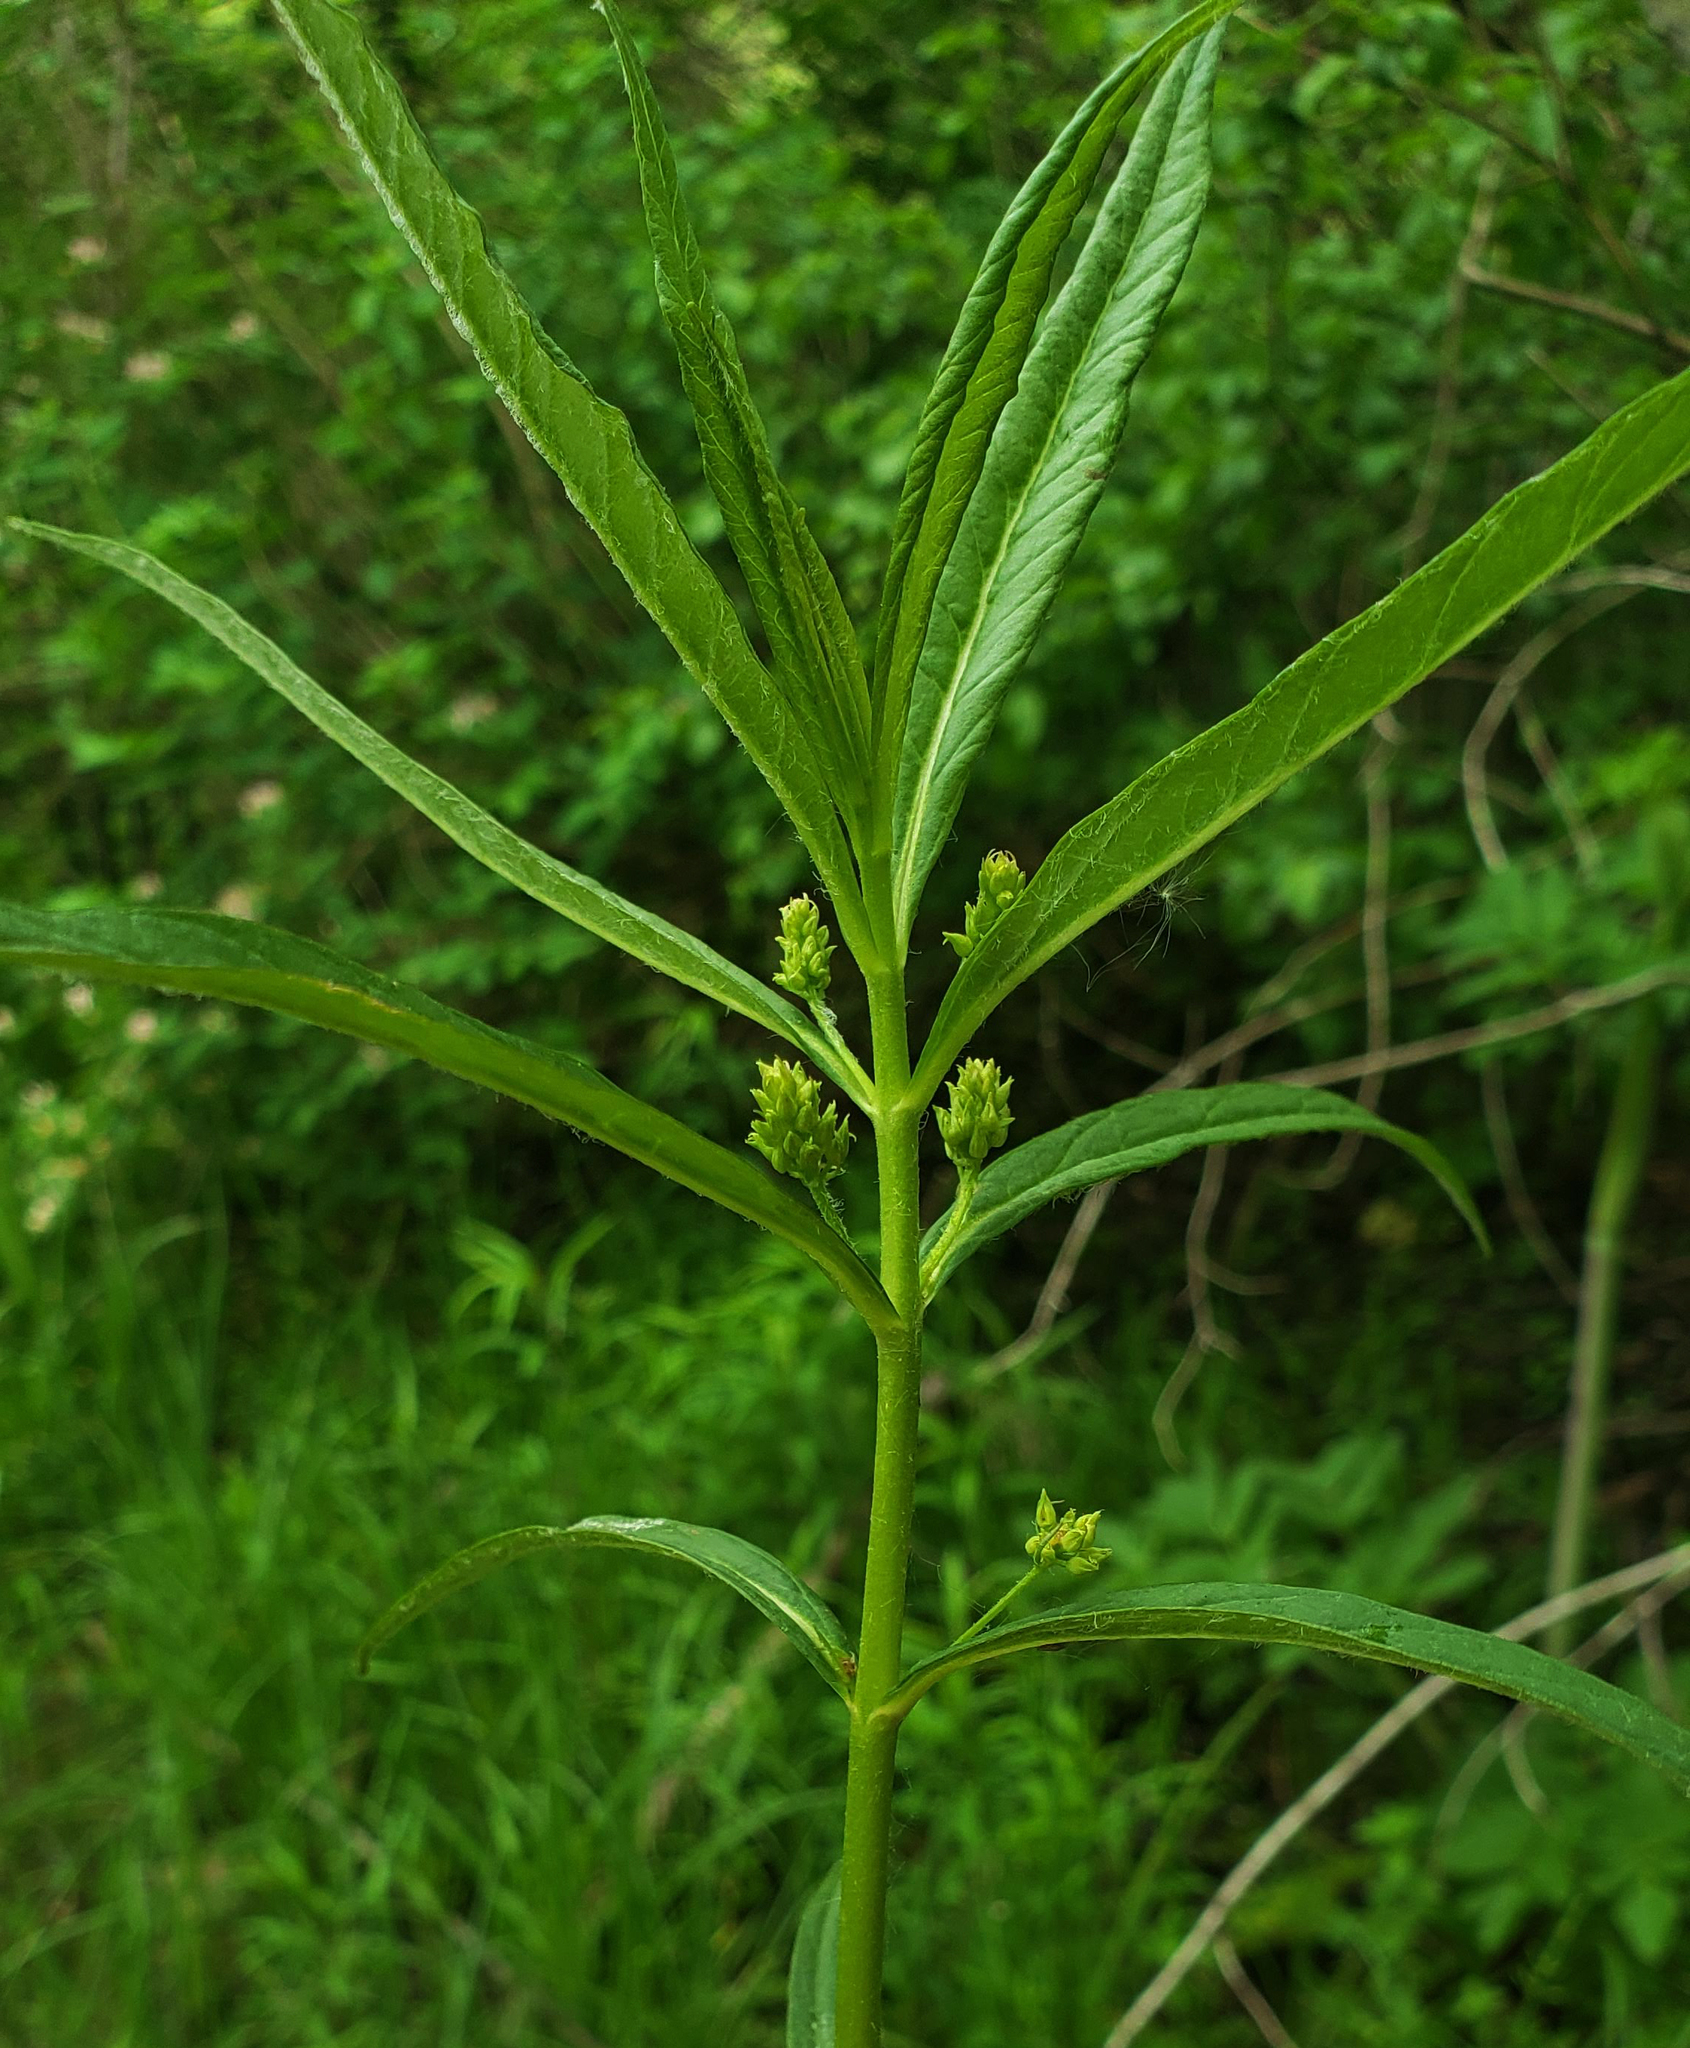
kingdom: Plantae
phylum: Tracheophyta
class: Magnoliopsida
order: Ericales
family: Primulaceae
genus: Lysimachia
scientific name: Lysimachia thyrsiflora
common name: Tufted loosestrife
